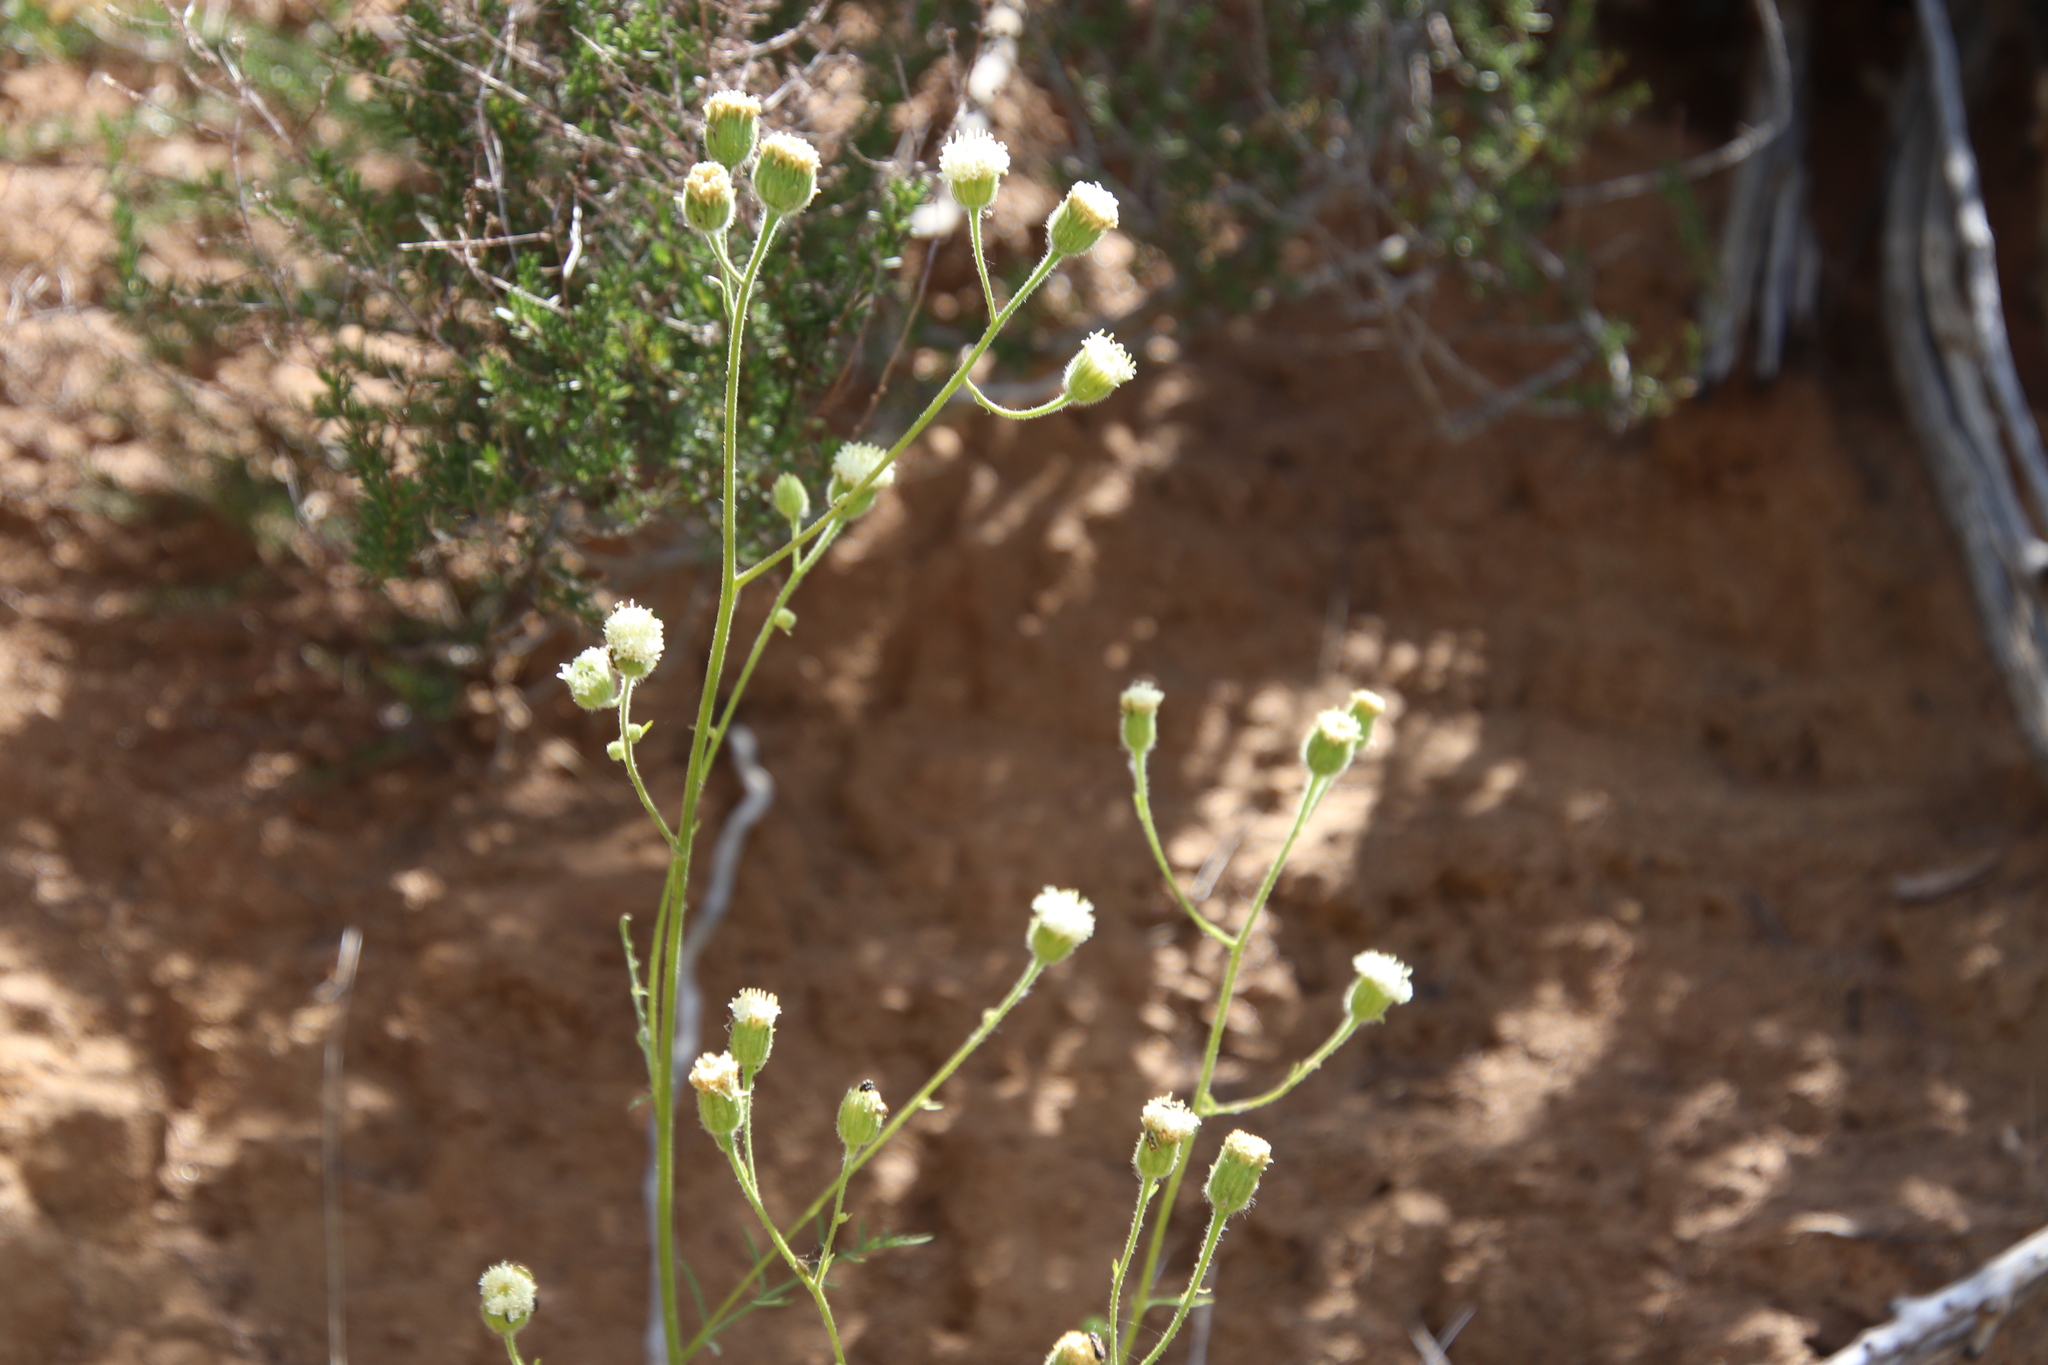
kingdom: Plantae
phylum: Tracheophyta
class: Magnoliopsida
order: Asterales
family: Asteraceae
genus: Chaenactis
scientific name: Chaenactis artemisiifolia
